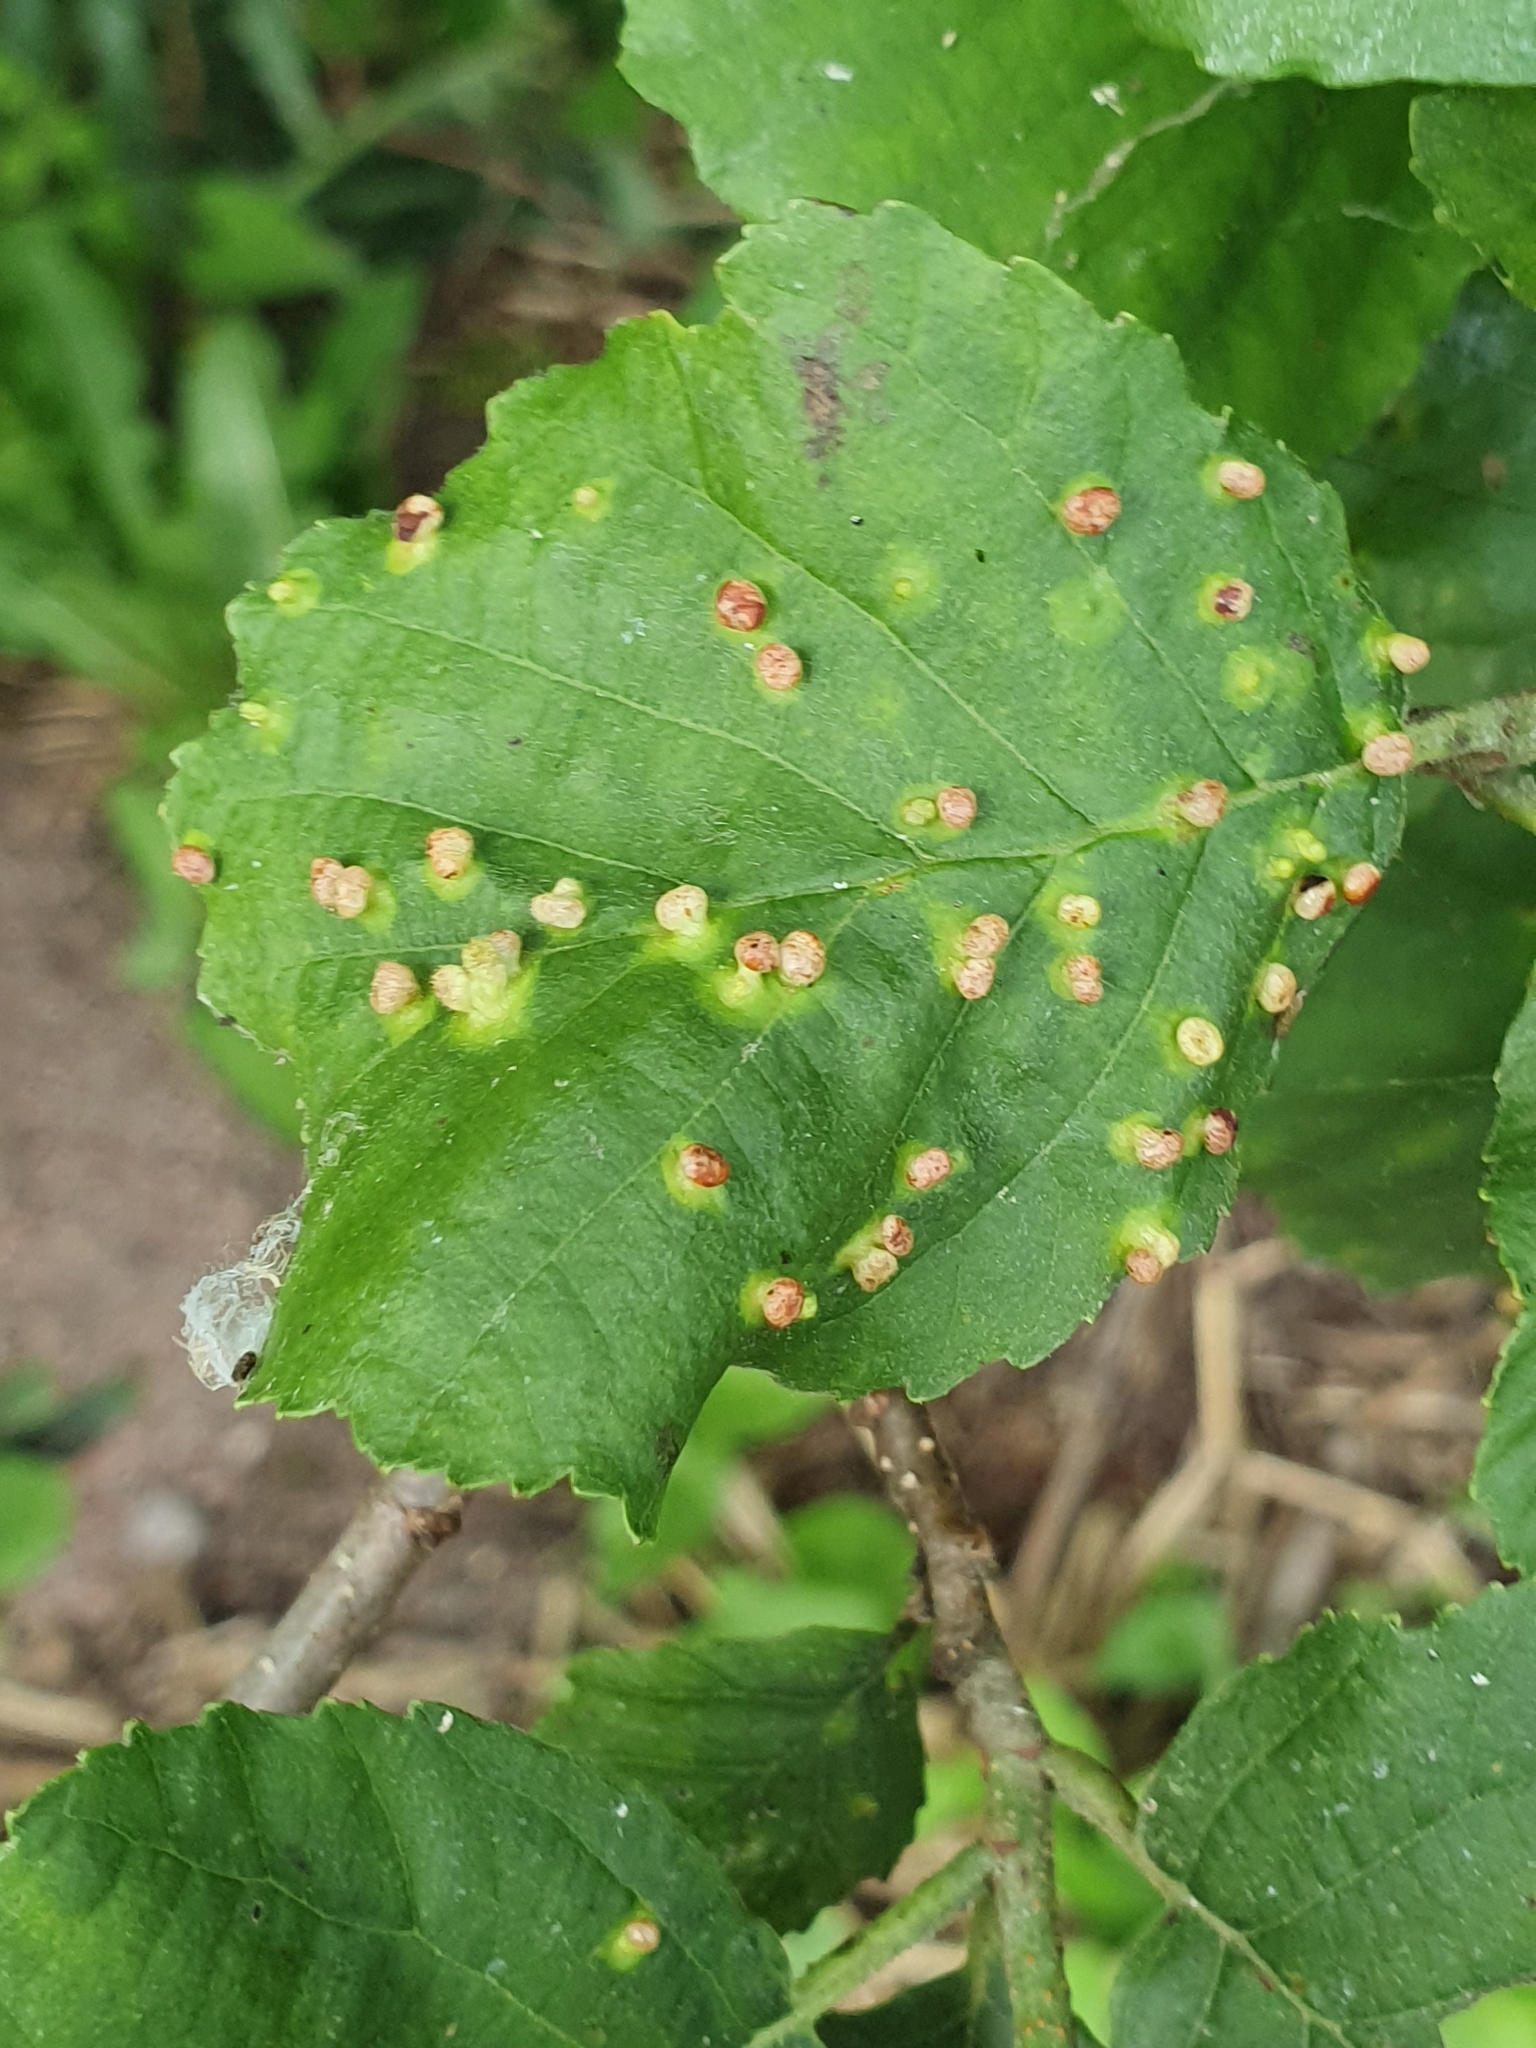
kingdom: Animalia
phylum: Arthropoda
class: Arachnida
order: Trombidiformes
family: Eriophyidae
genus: Eriophyes
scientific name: Eriophyes laevis
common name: Alder leaf gall mite
